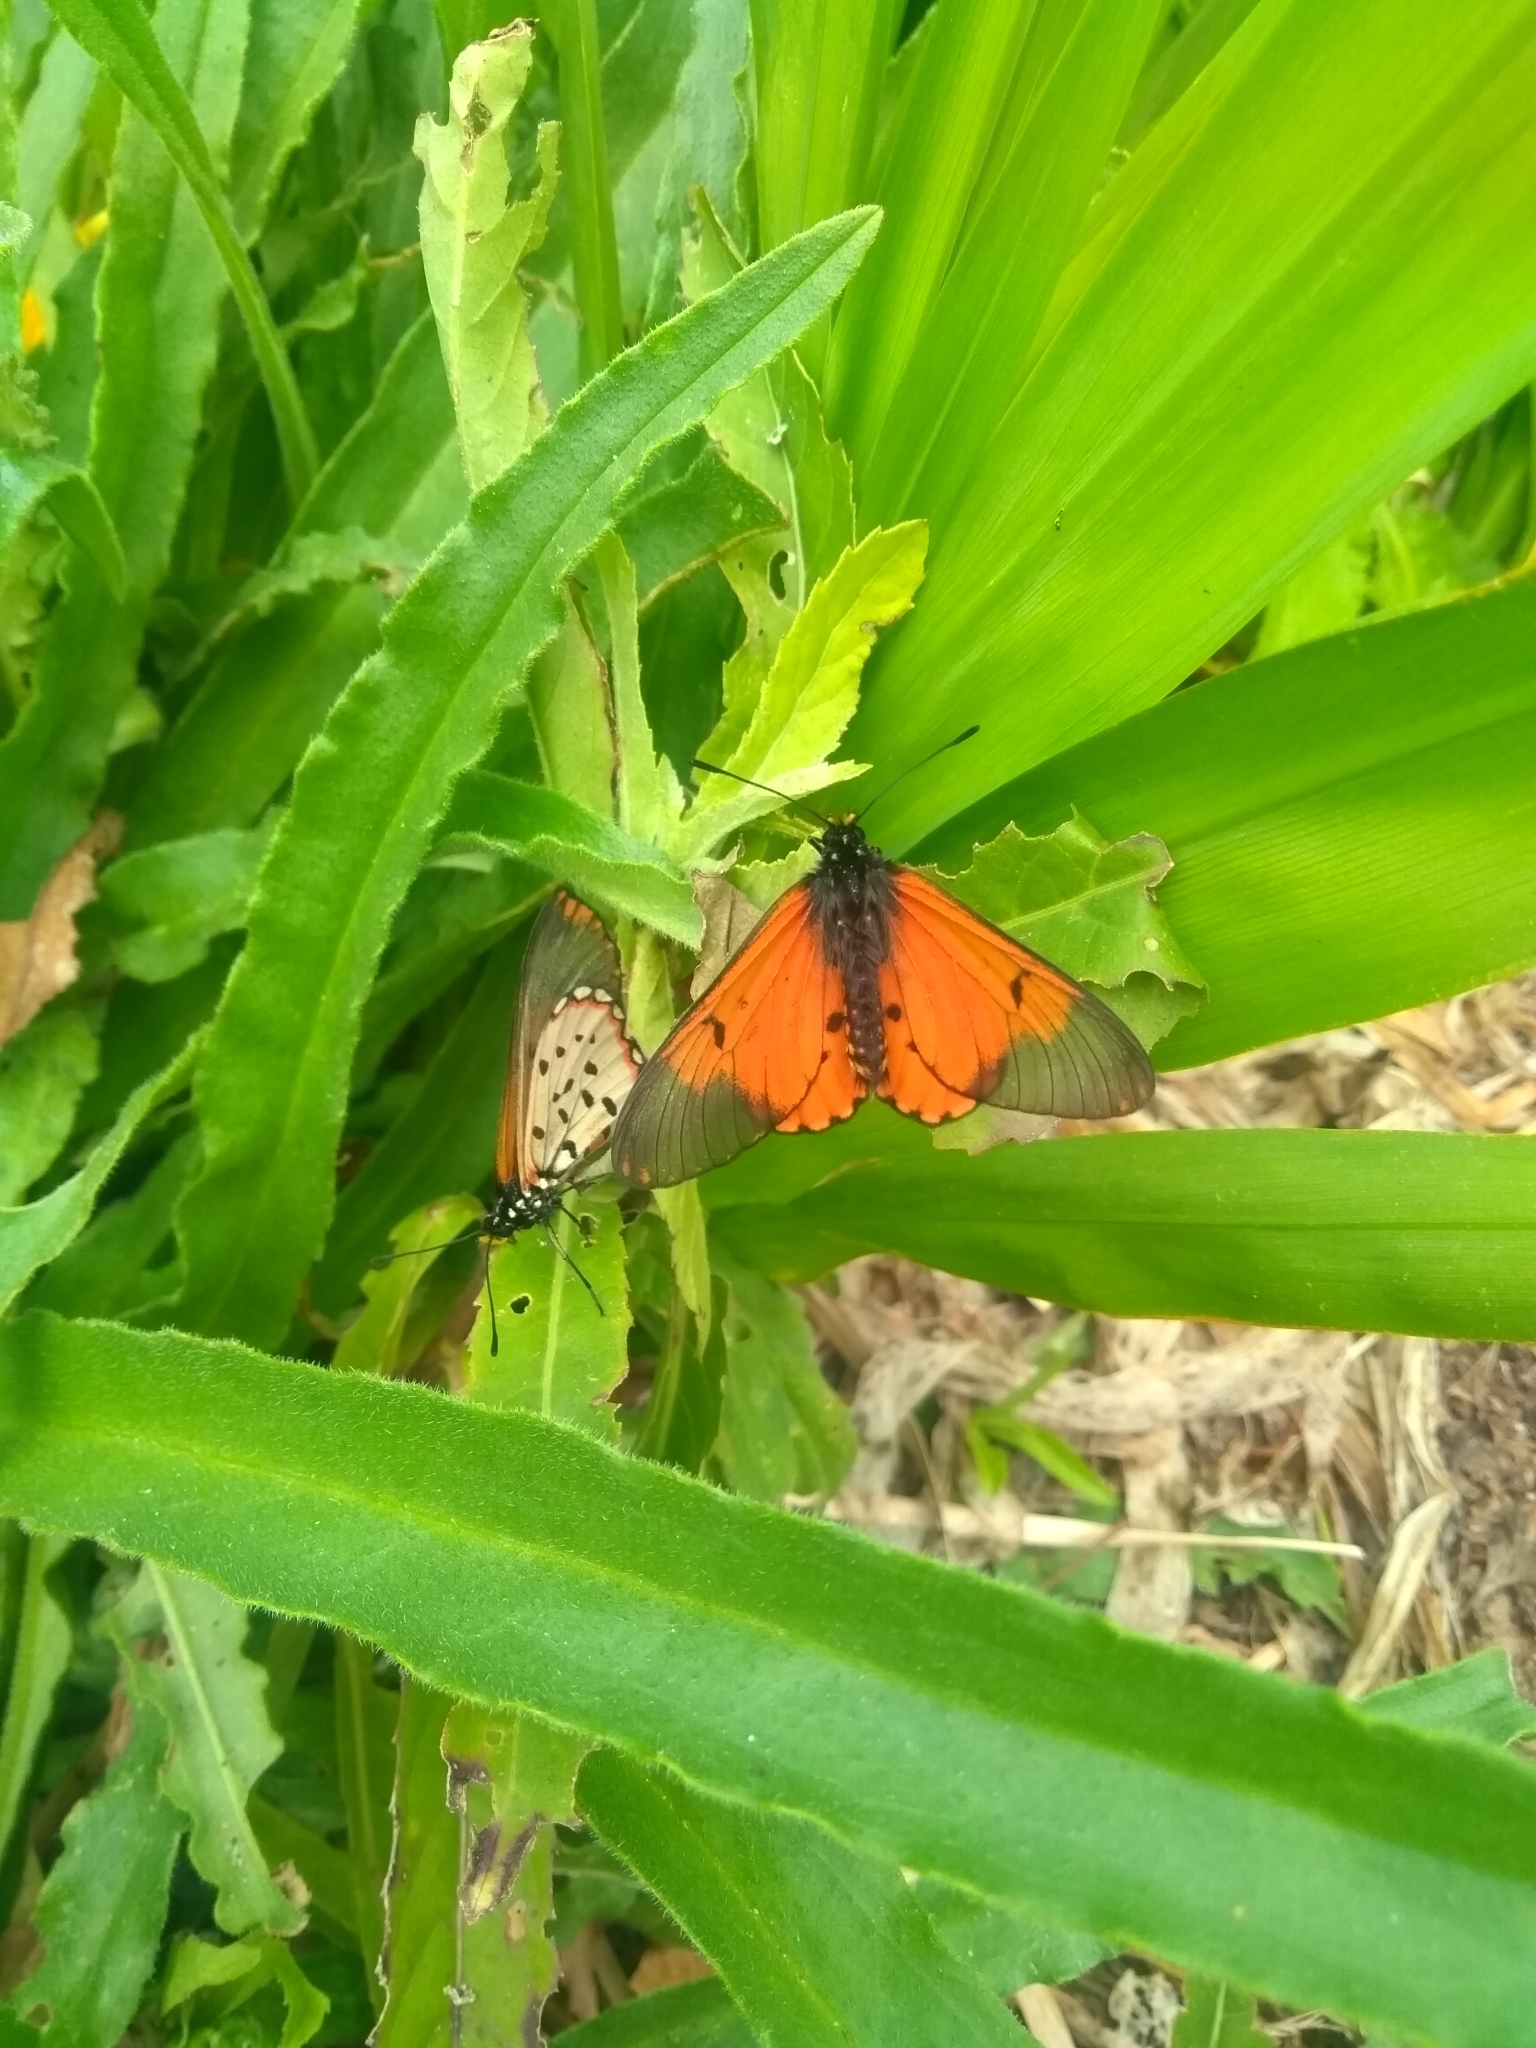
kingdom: Animalia
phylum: Arthropoda
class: Insecta
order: Lepidoptera
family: Nymphalidae
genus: Acraea
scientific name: Acraea horta
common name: Garden acraea
